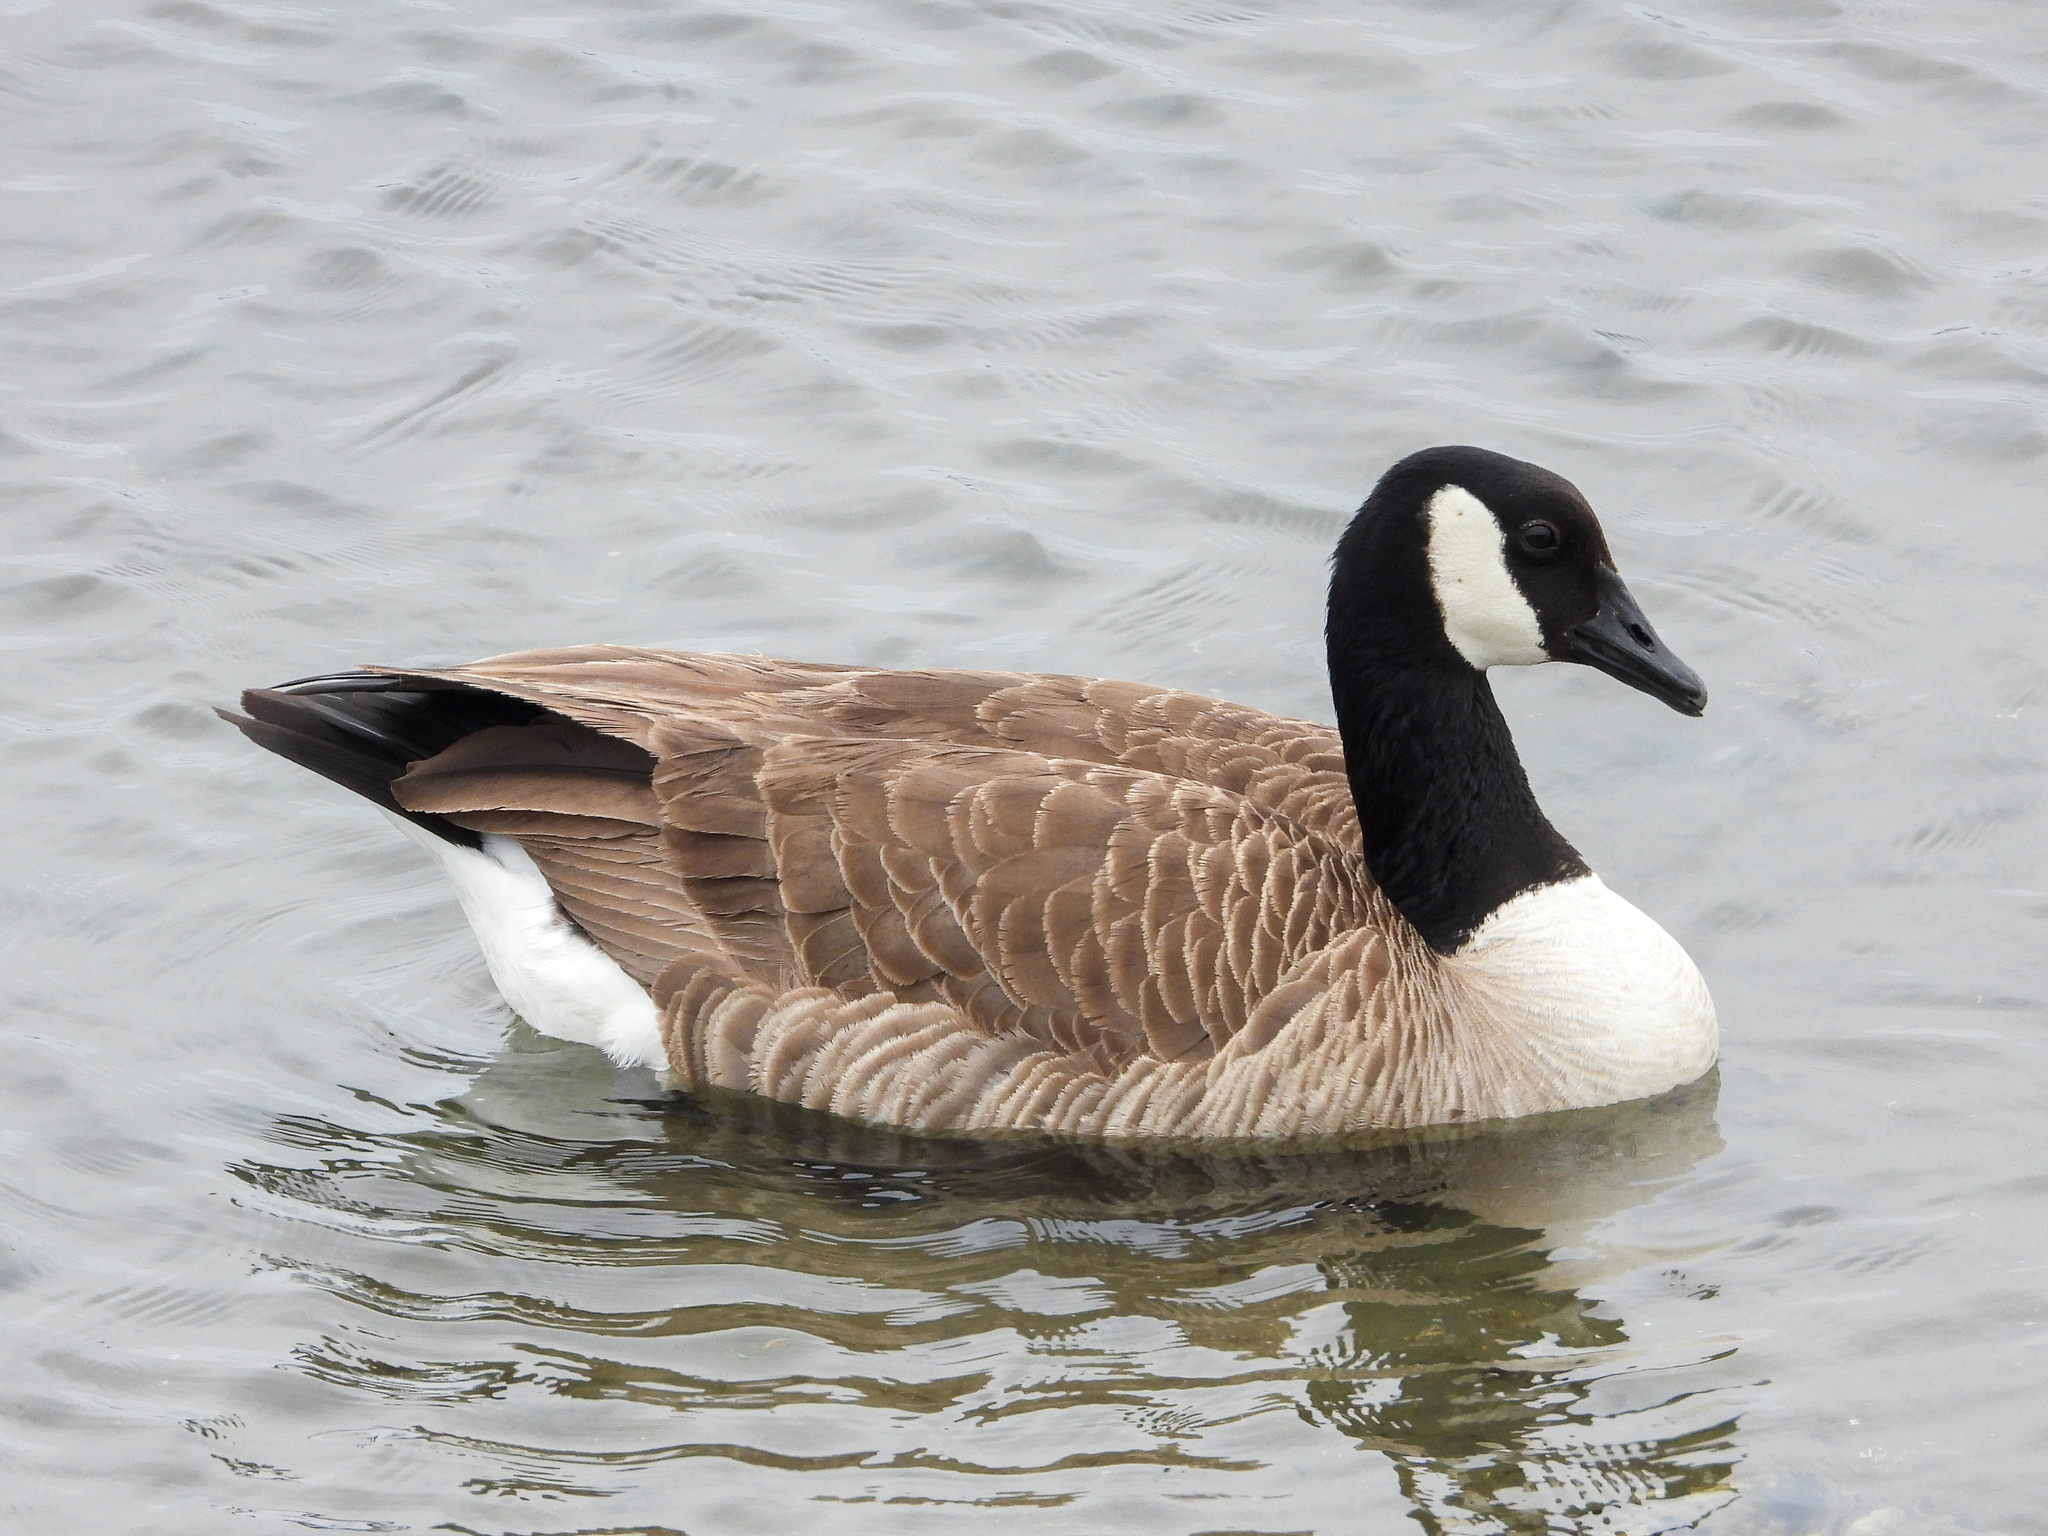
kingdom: Animalia
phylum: Chordata
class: Aves
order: Anseriformes
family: Anatidae
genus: Branta
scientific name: Branta canadensis
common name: Canada goose
